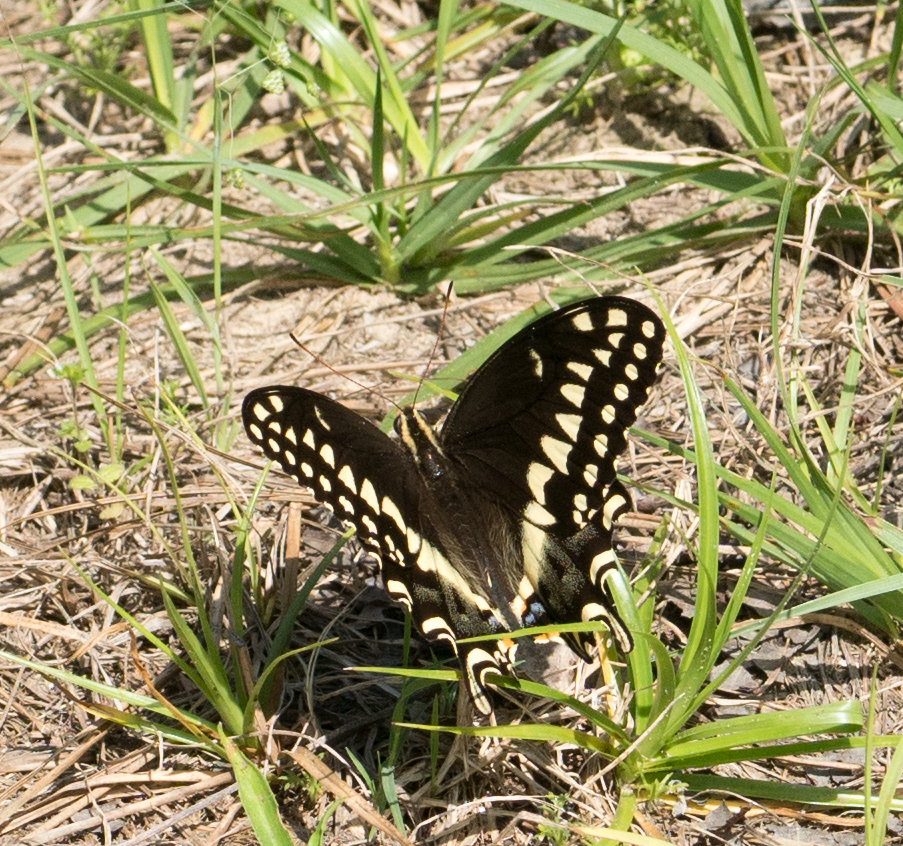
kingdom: Animalia
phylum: Arthropoda
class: Insecta
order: Lepidoptera
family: Papilionidae
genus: Papilio
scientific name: Papilio palamedes
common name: Palamedes swallowtail
